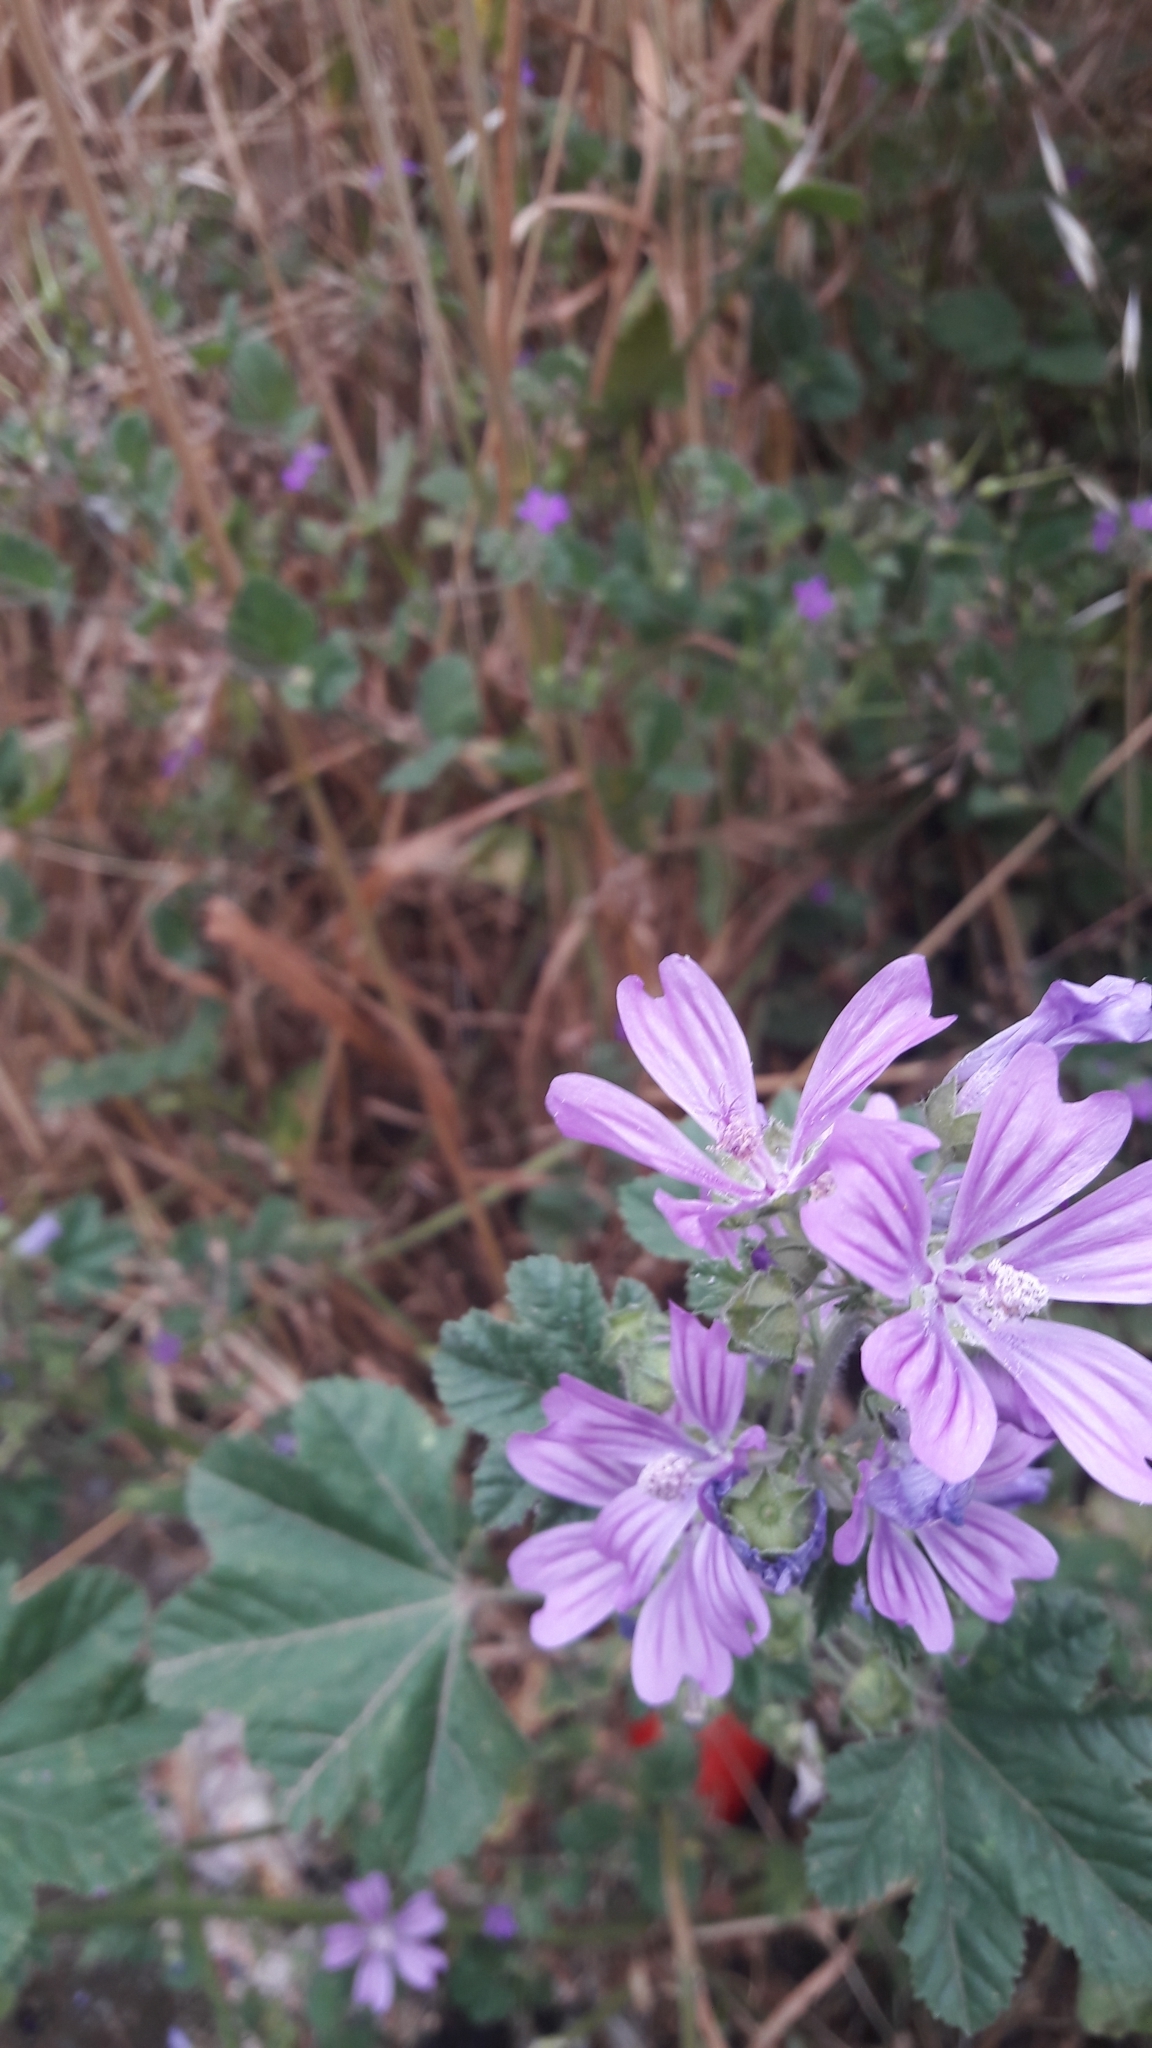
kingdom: Plantae
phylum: Tracheophyta
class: Magnoliopsida
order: Malvales
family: Malvaceae
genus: Malva
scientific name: Malva sylvestris
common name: Common mallow
